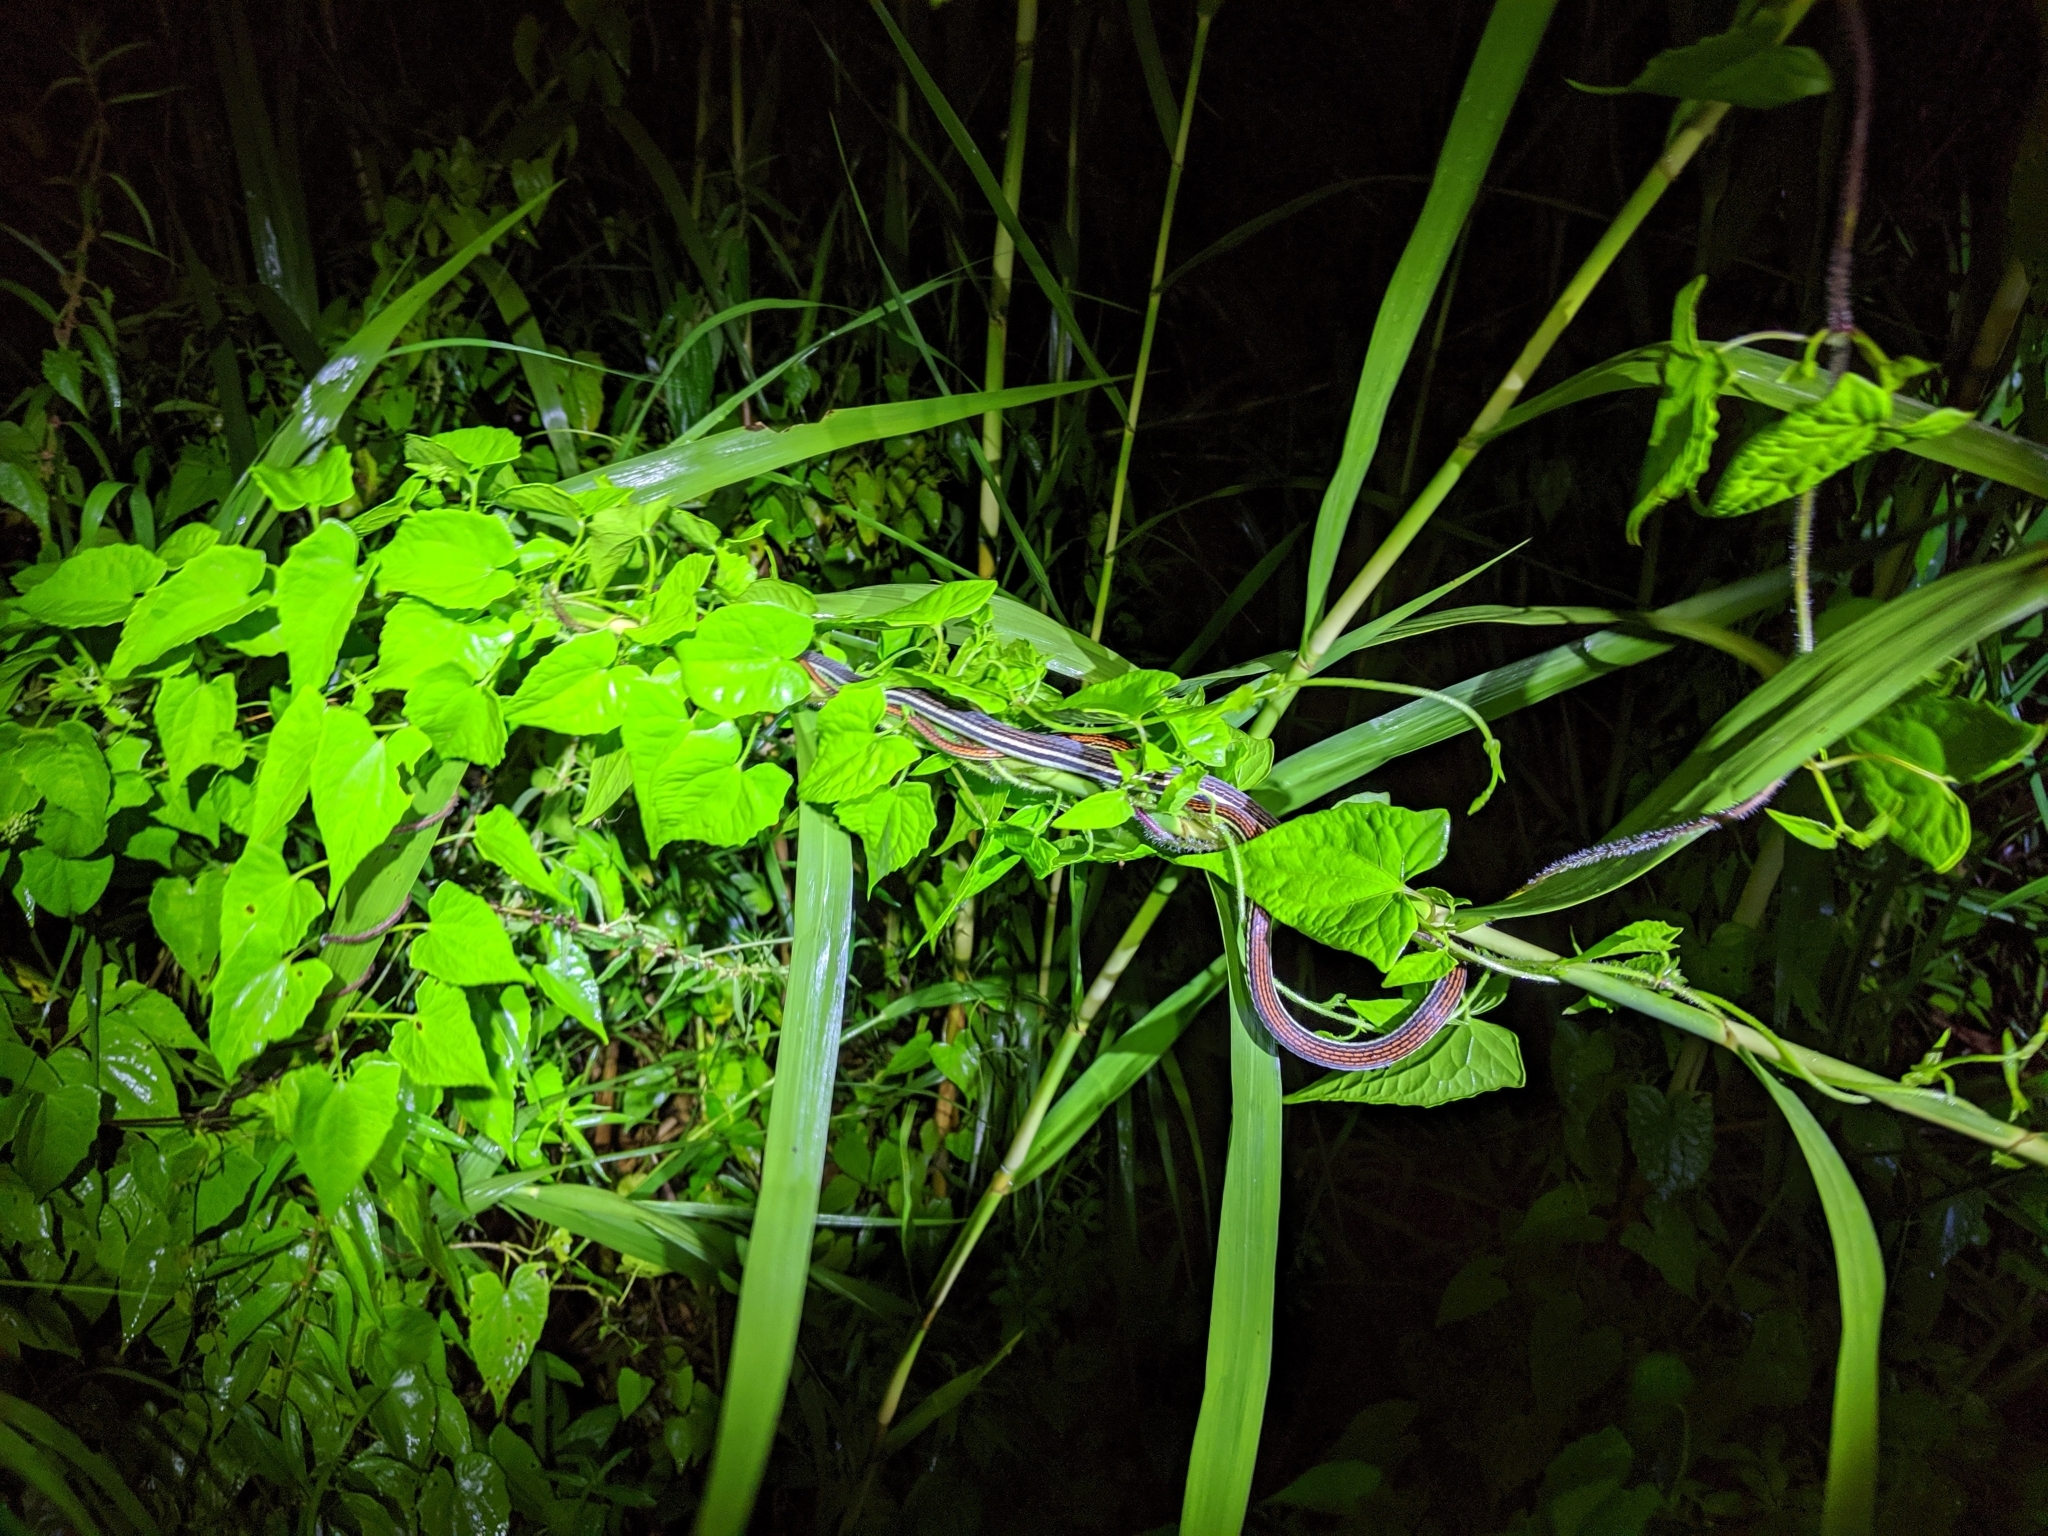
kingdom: Animalia
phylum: Chordata
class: Squamata
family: Colubridae
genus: Dendrelaphis
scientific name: Dendrelaphis caudolineatus
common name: Striped bronzeback
